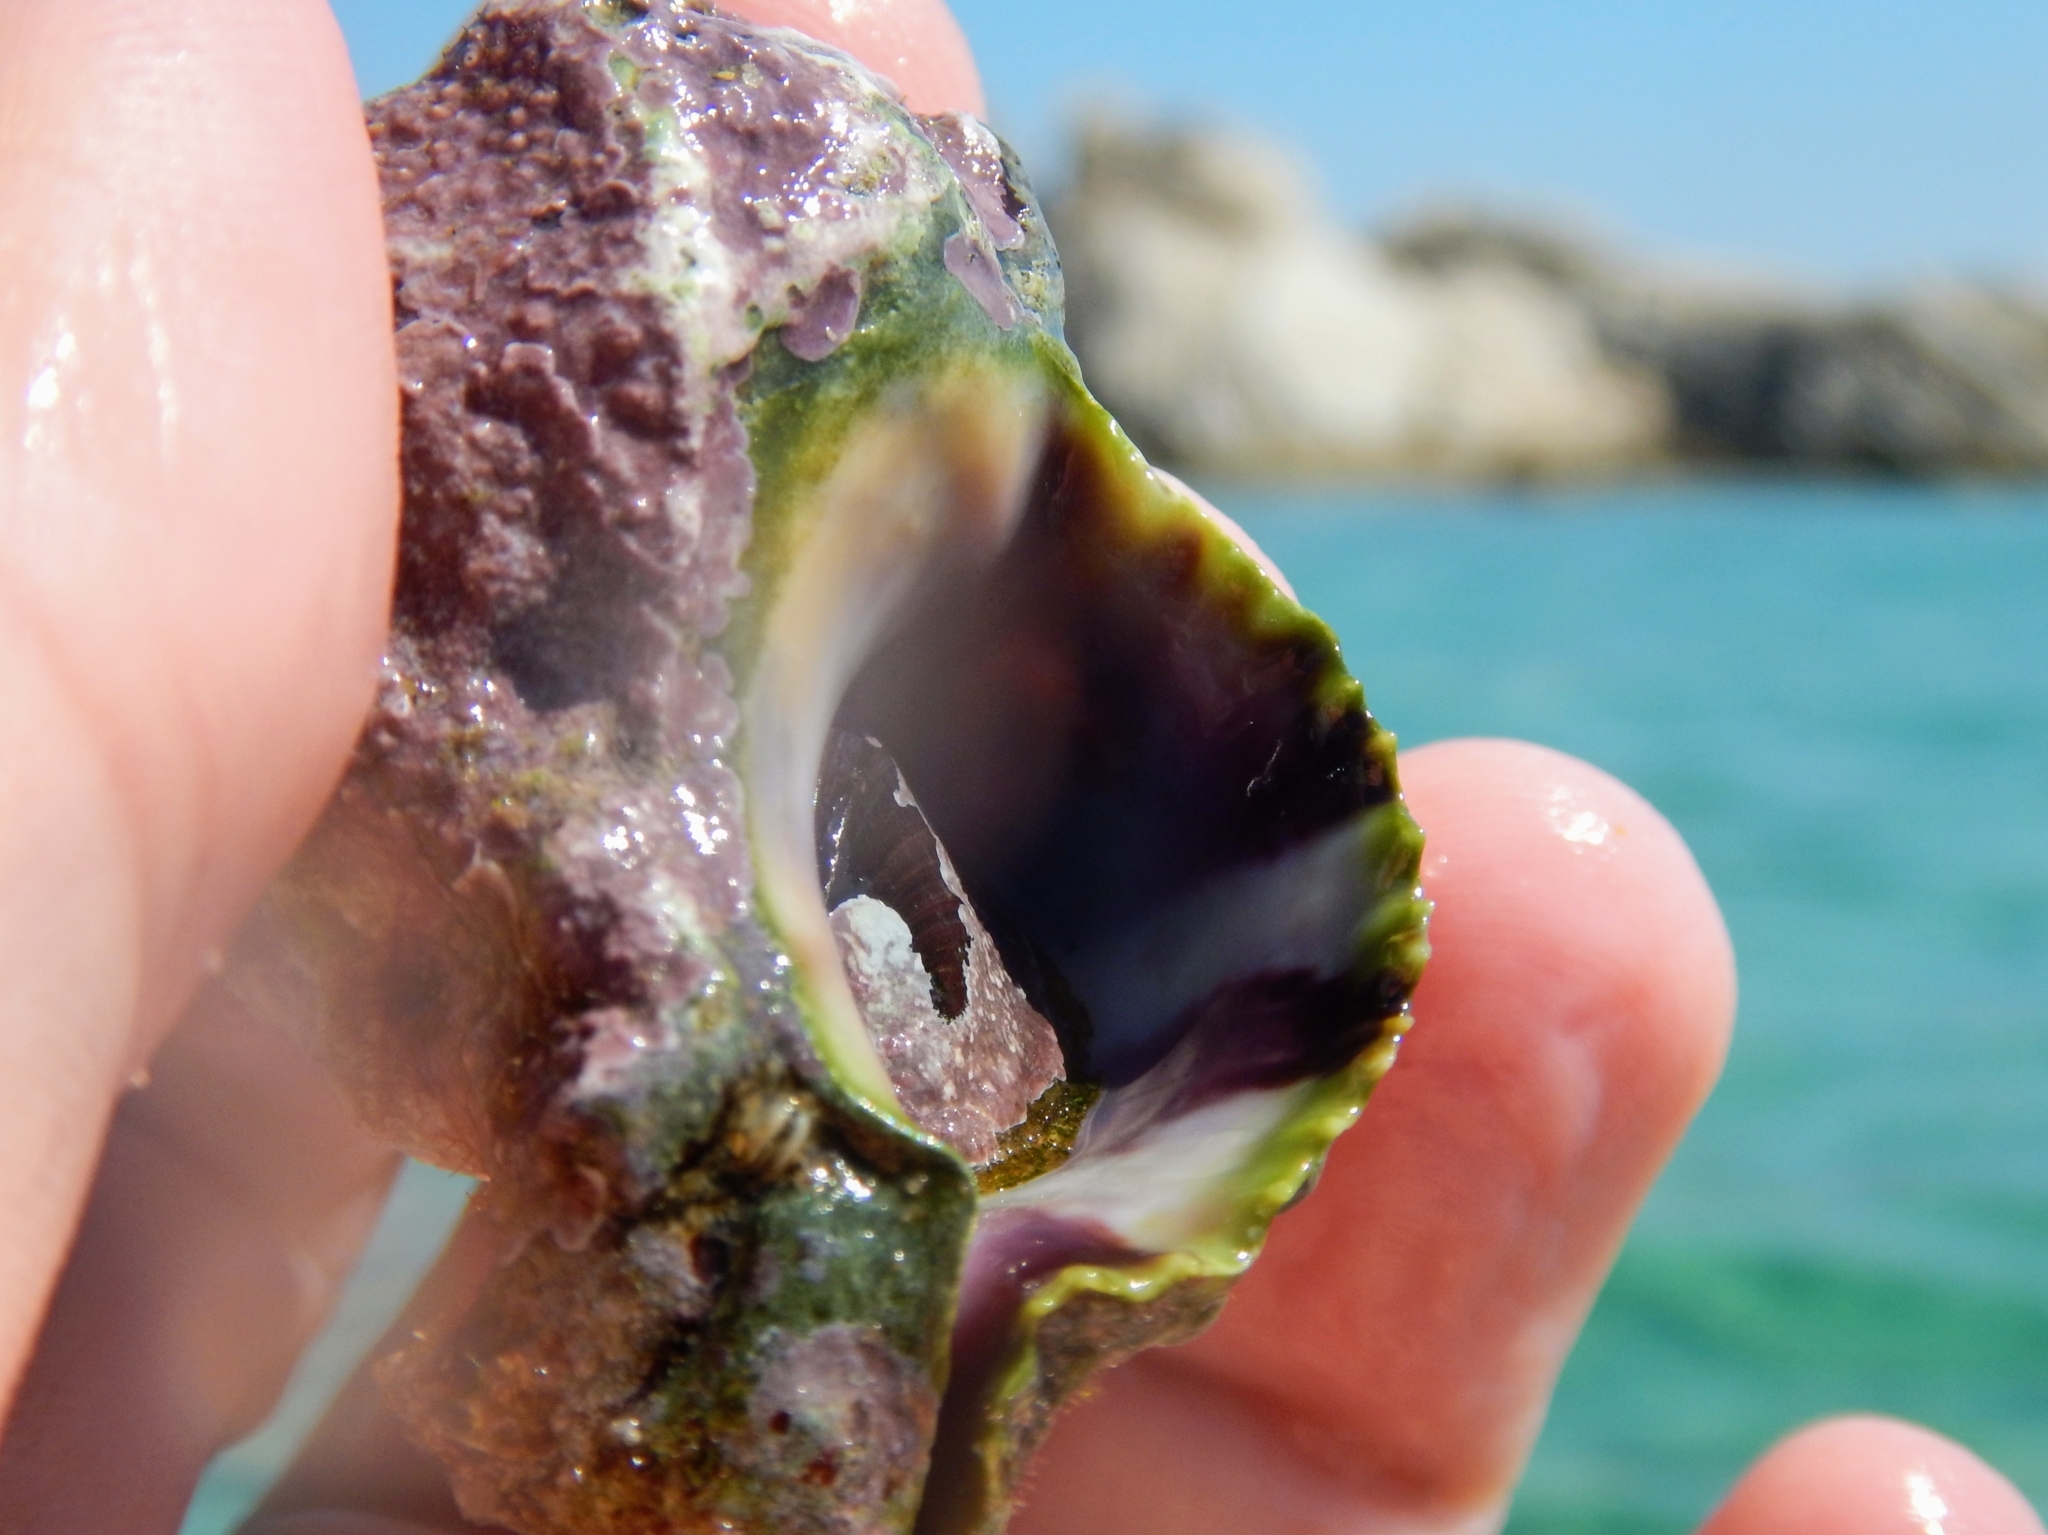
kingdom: Animalia
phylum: Mollusca
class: Gastropoda
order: Neogastropoda
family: Muricidae
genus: Hexaplex
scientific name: Hexaplex trunculus
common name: Banded dye-murex
